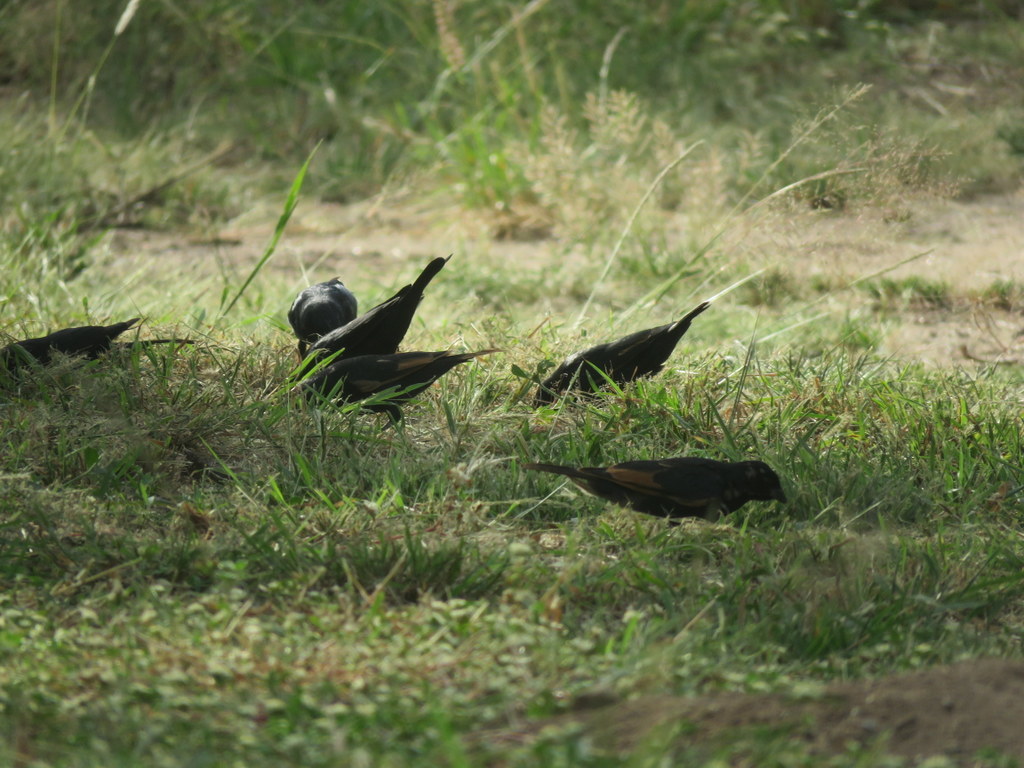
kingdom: Animalia
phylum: Chordata
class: Aves
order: Passeriformes
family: Icteridae
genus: Molothrus
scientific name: Molothrus rufoaxillaris
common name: Screaming cowbird
